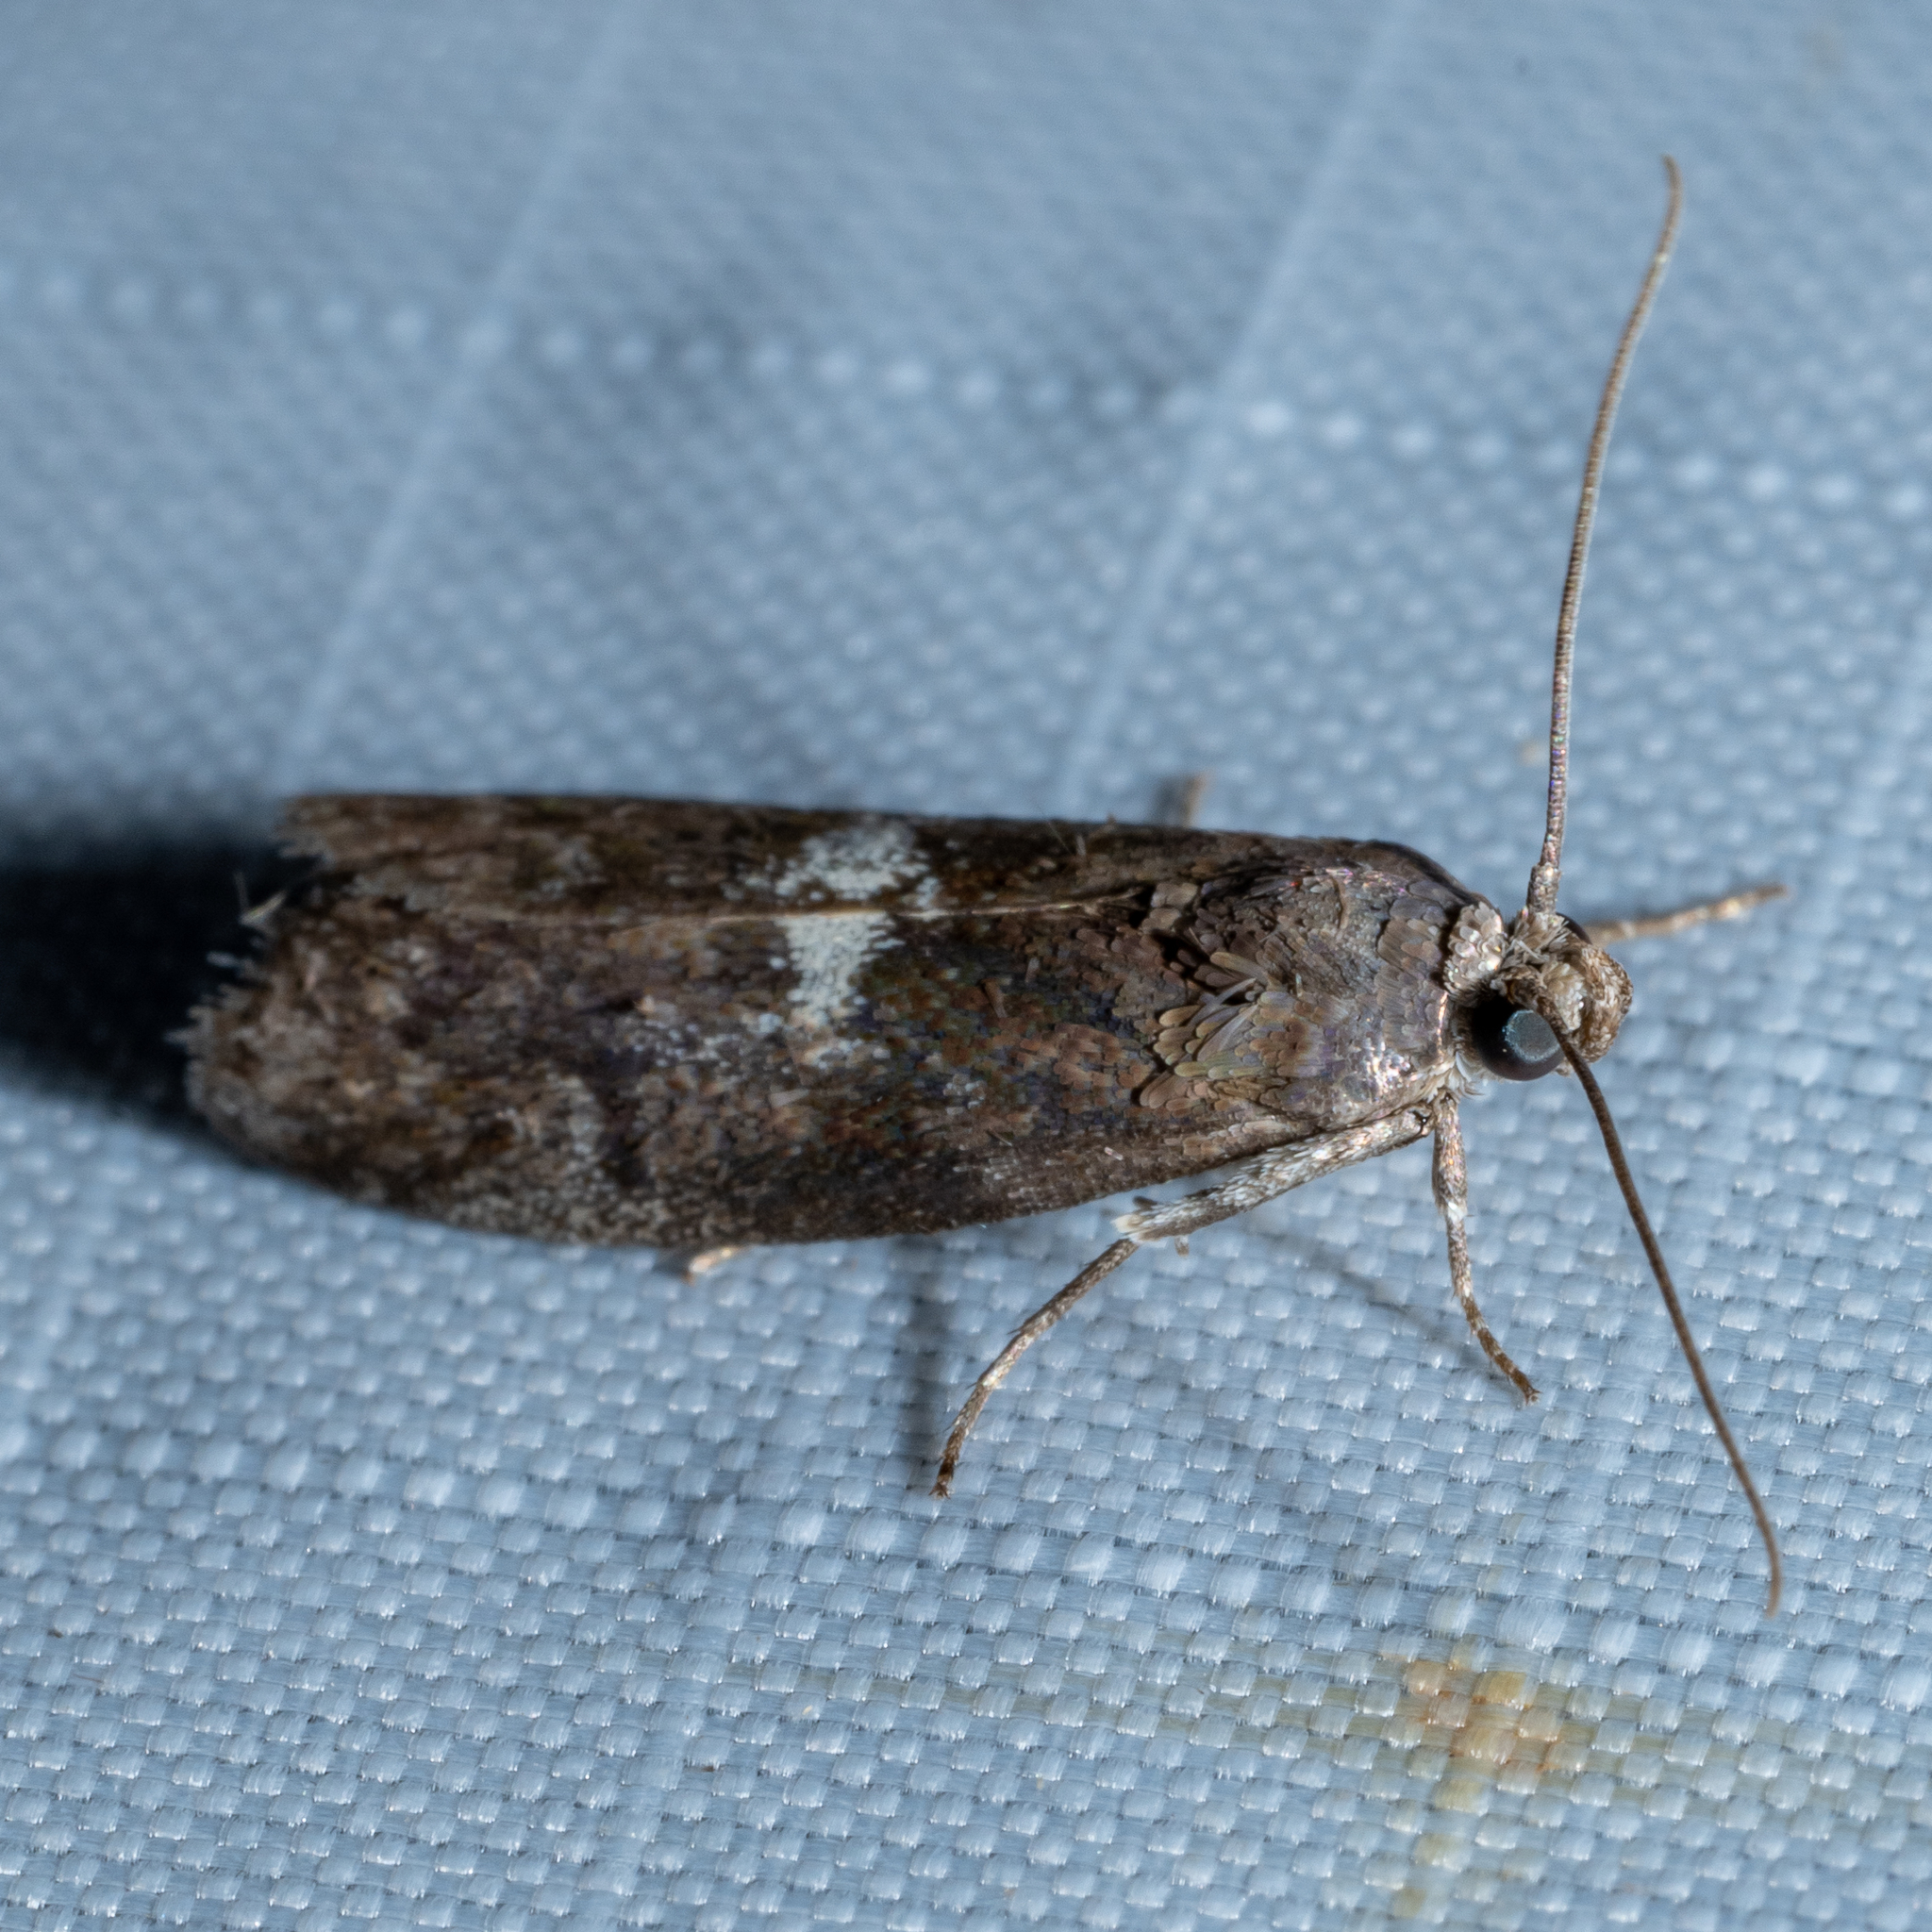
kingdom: Animalia
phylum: Arthropoda
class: Insecta
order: Lepidoptera
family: Pyralidae
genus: Salebriaria
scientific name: Salebriaria engeli
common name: Engel's salebriaria moth
